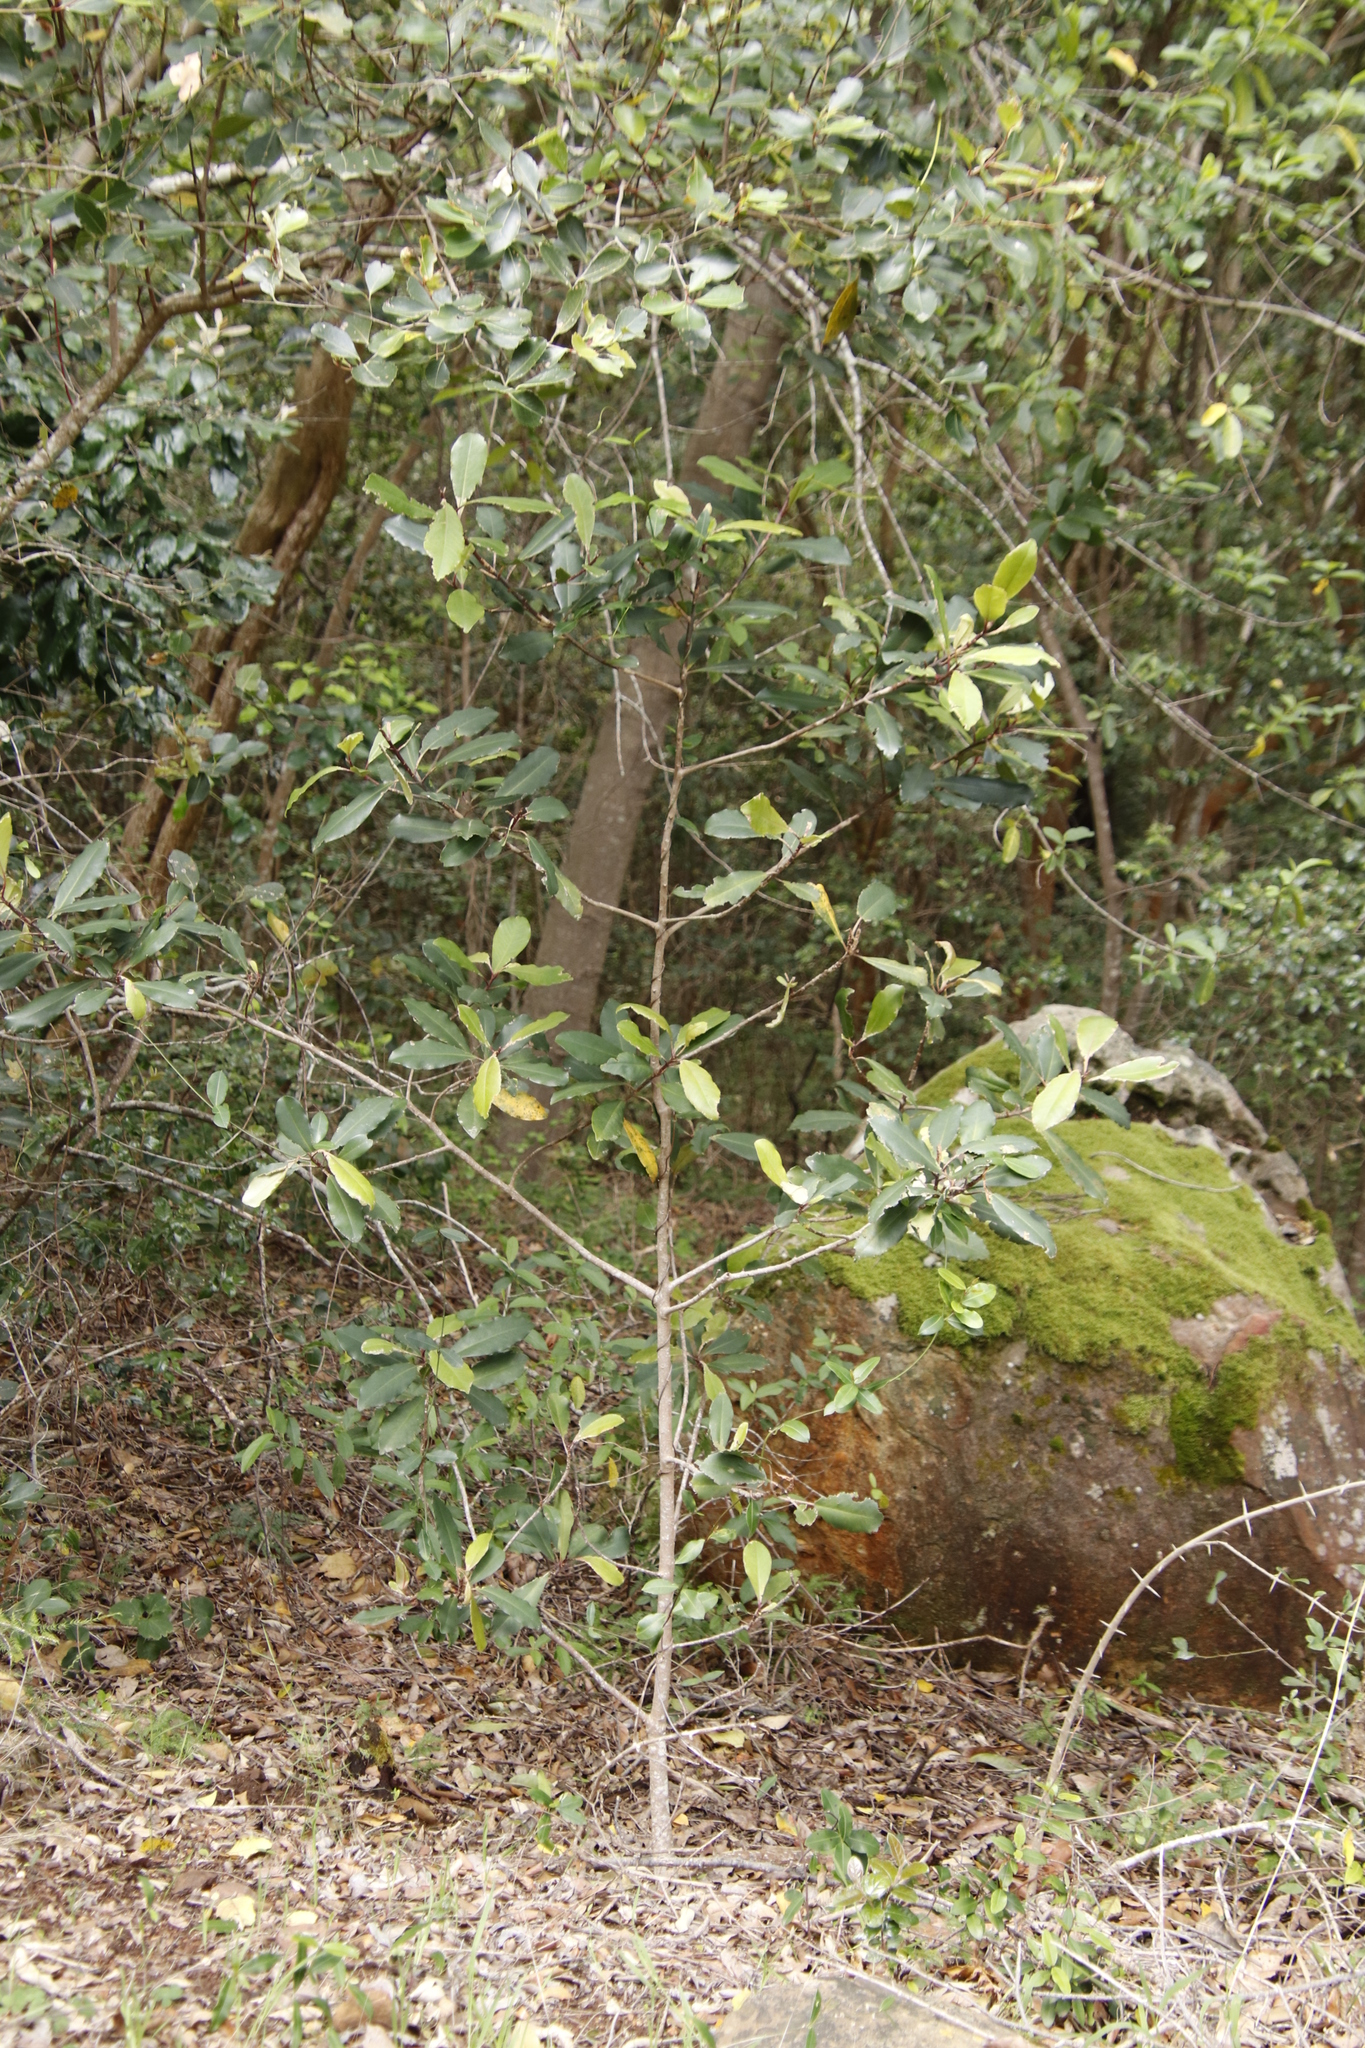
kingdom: Plantae
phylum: Tracheophyta
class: Magnoliopsida
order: Ericales
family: Primulaceae
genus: Myrsine
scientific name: Myrsine melanophloeos
